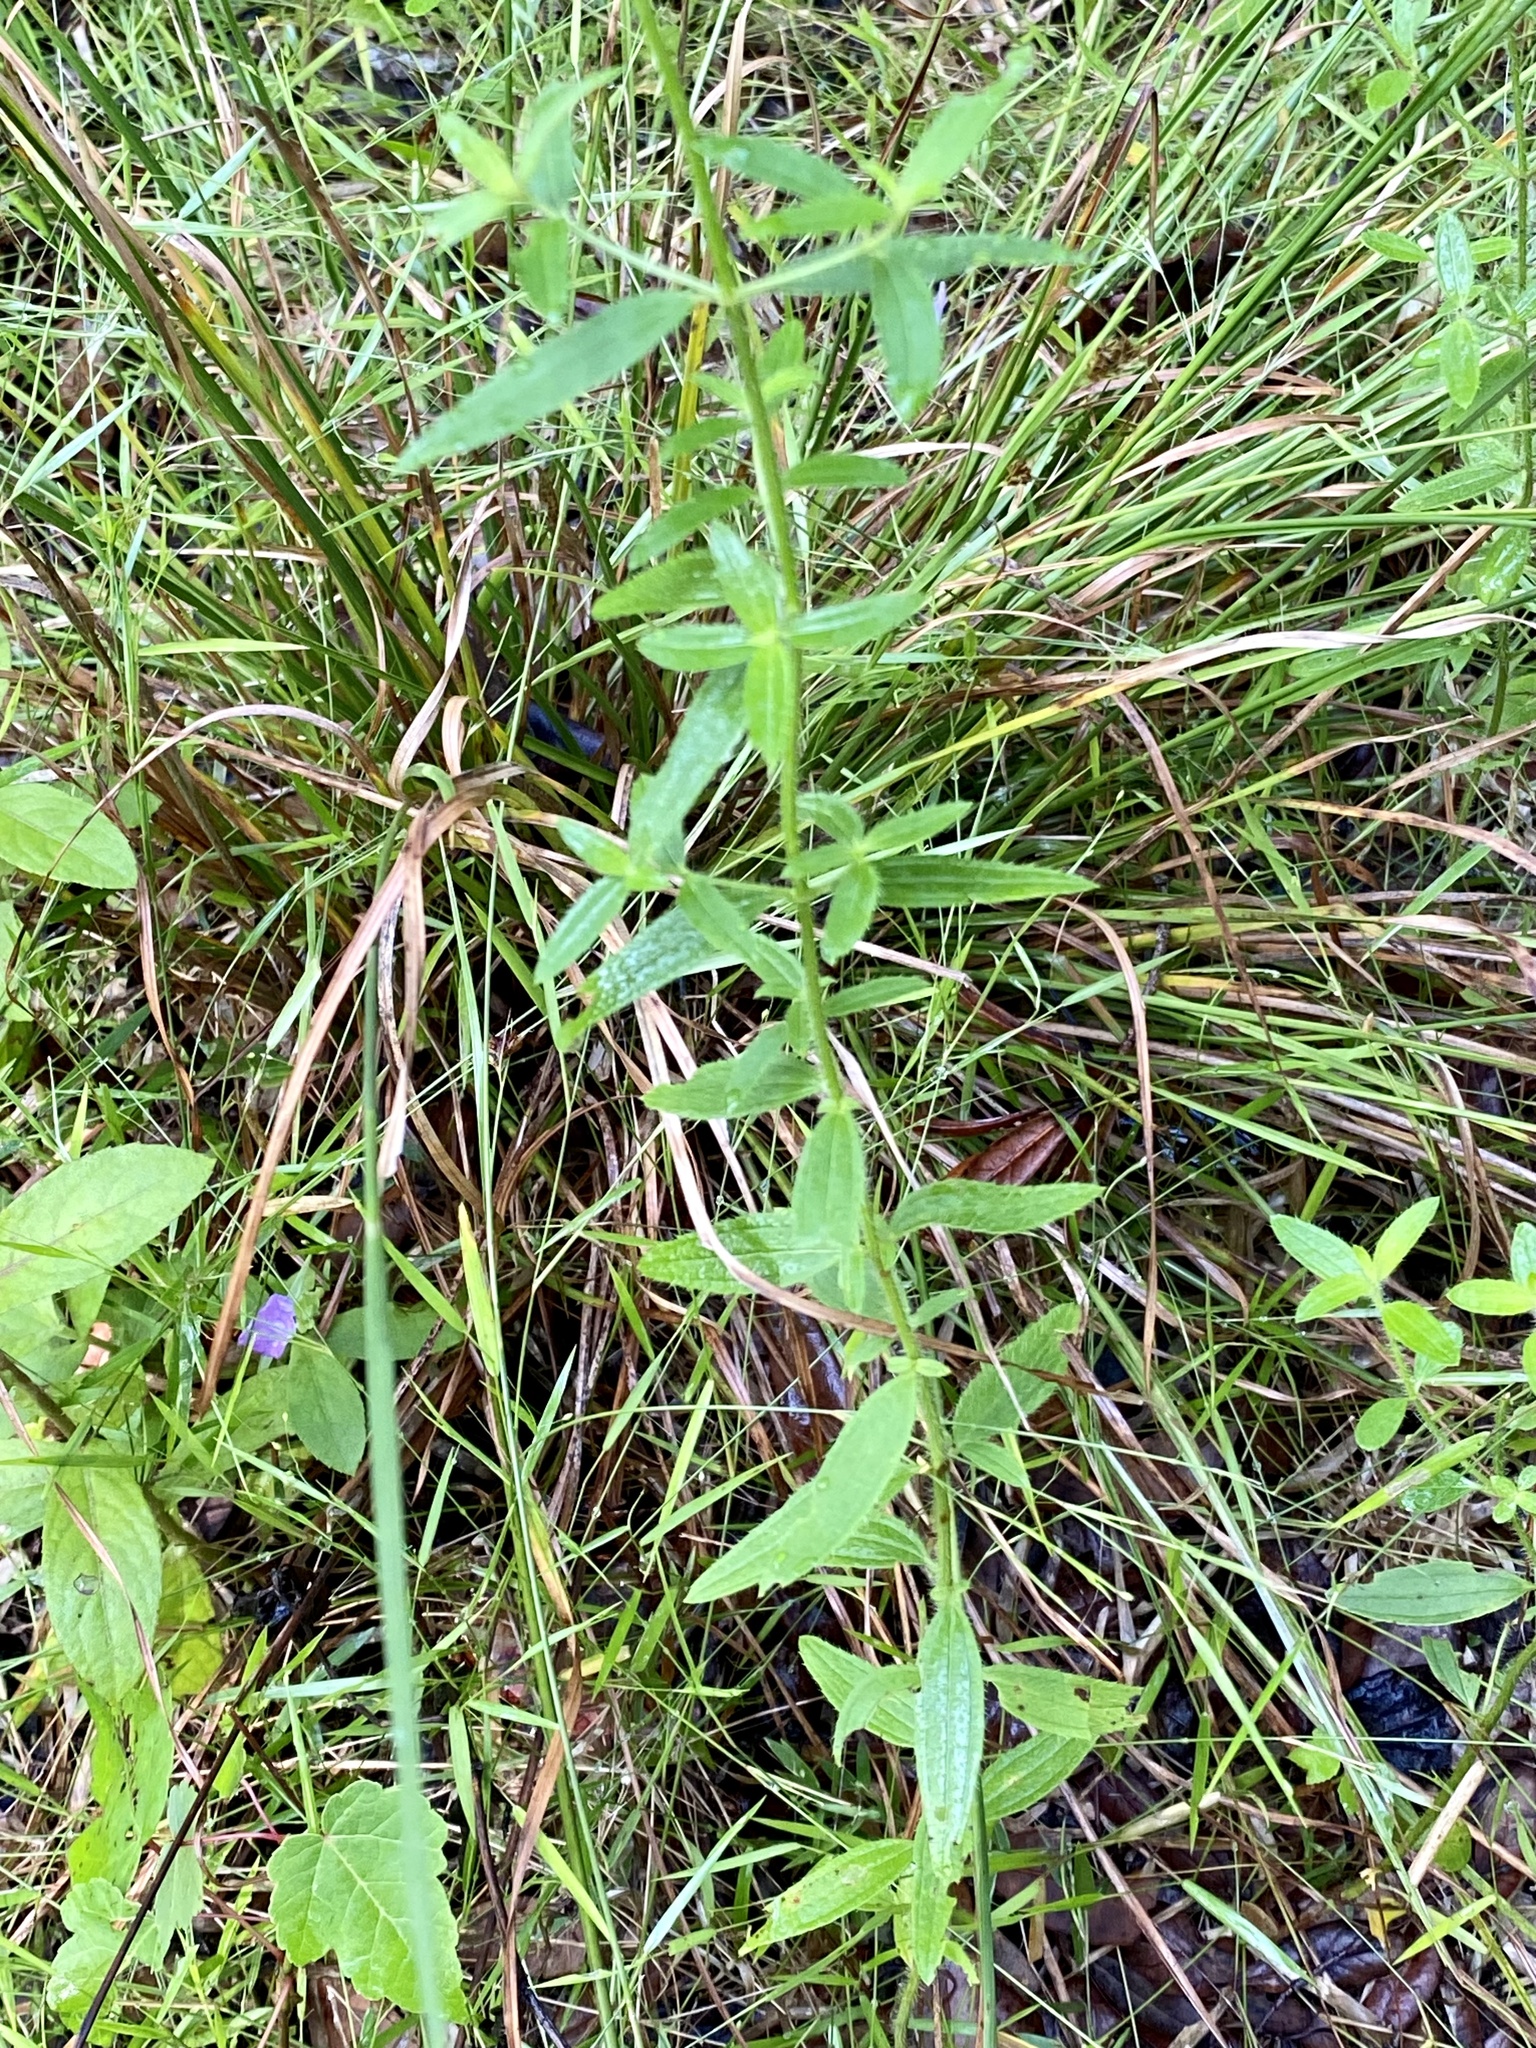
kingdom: Plantae
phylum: Tracheophyta
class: Magnoliopsida
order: Myrtales
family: Melastomataceae
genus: Rhexia
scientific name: Rhexia nashii
